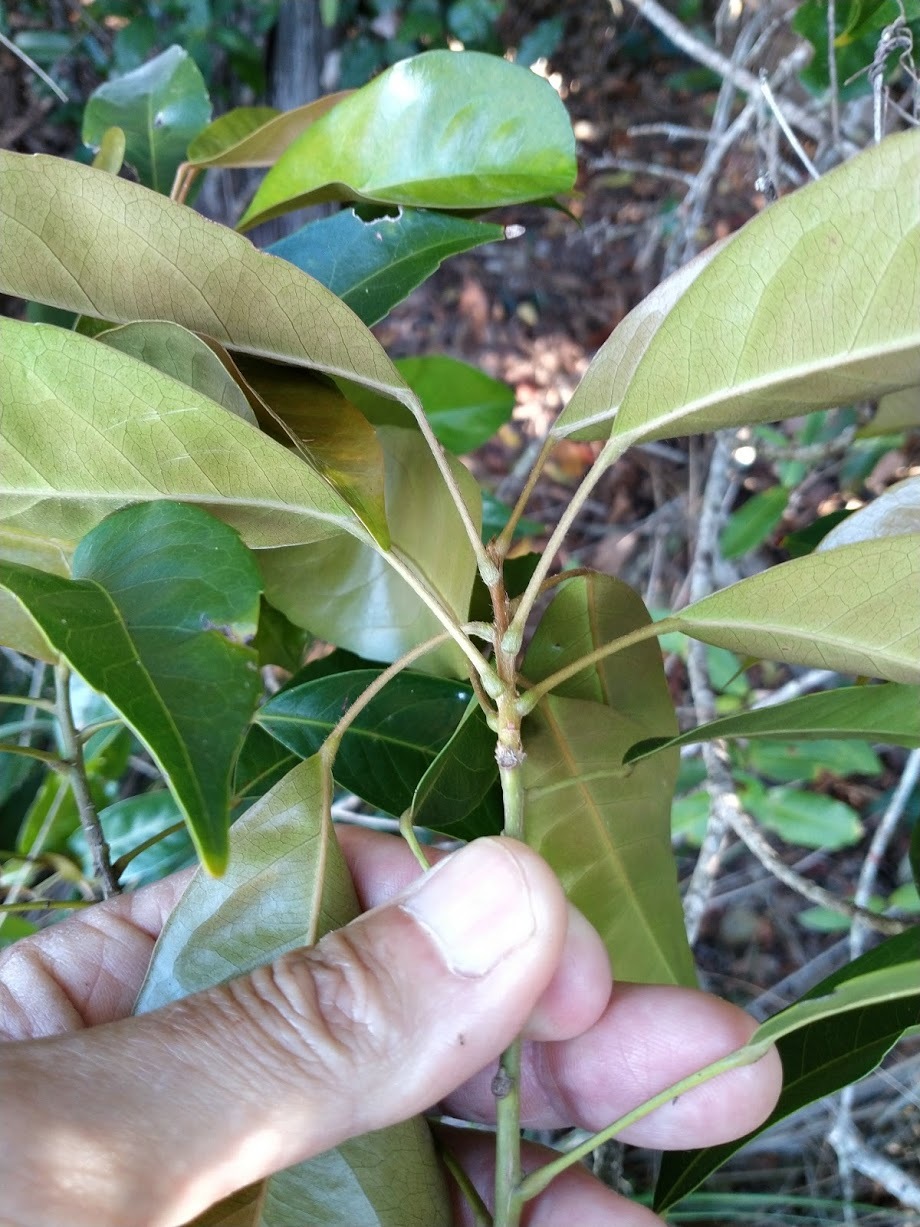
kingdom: Plantae
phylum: Tracheophyta
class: Magnoliopsida
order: Oxalidales
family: Elaeocarpaceae
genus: Elaeocarpus
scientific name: Elaeocarpus eumundi
